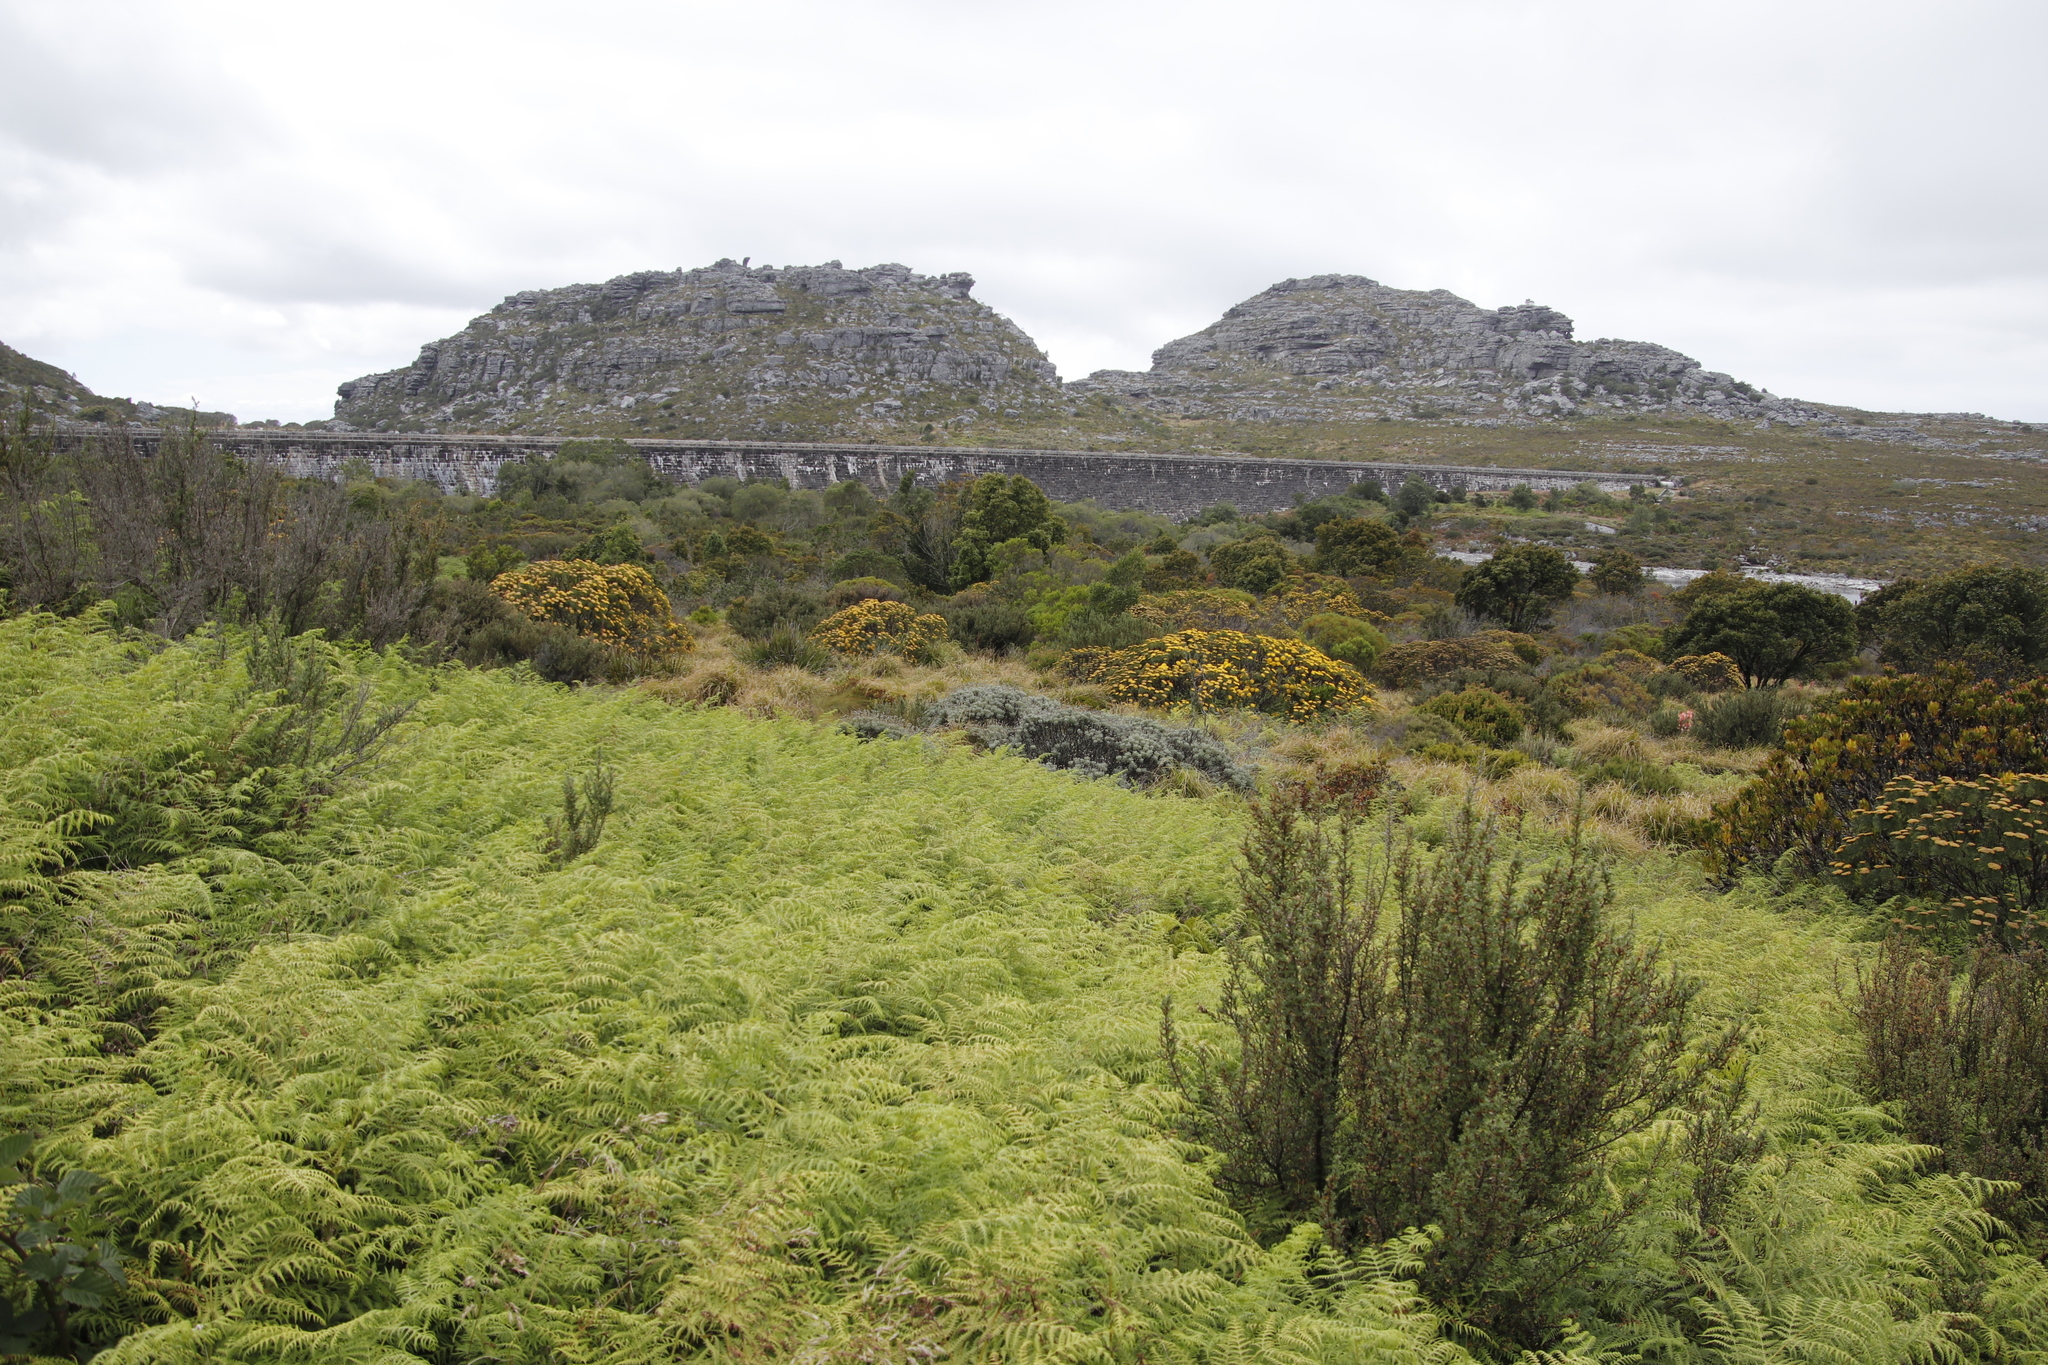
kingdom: Plantae
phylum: Tracheophyta
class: Polypodiopsida
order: Polypodiales
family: Dennstaedtiaceae
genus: Pteridium
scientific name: Pteridium aquilinum
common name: Bracken
